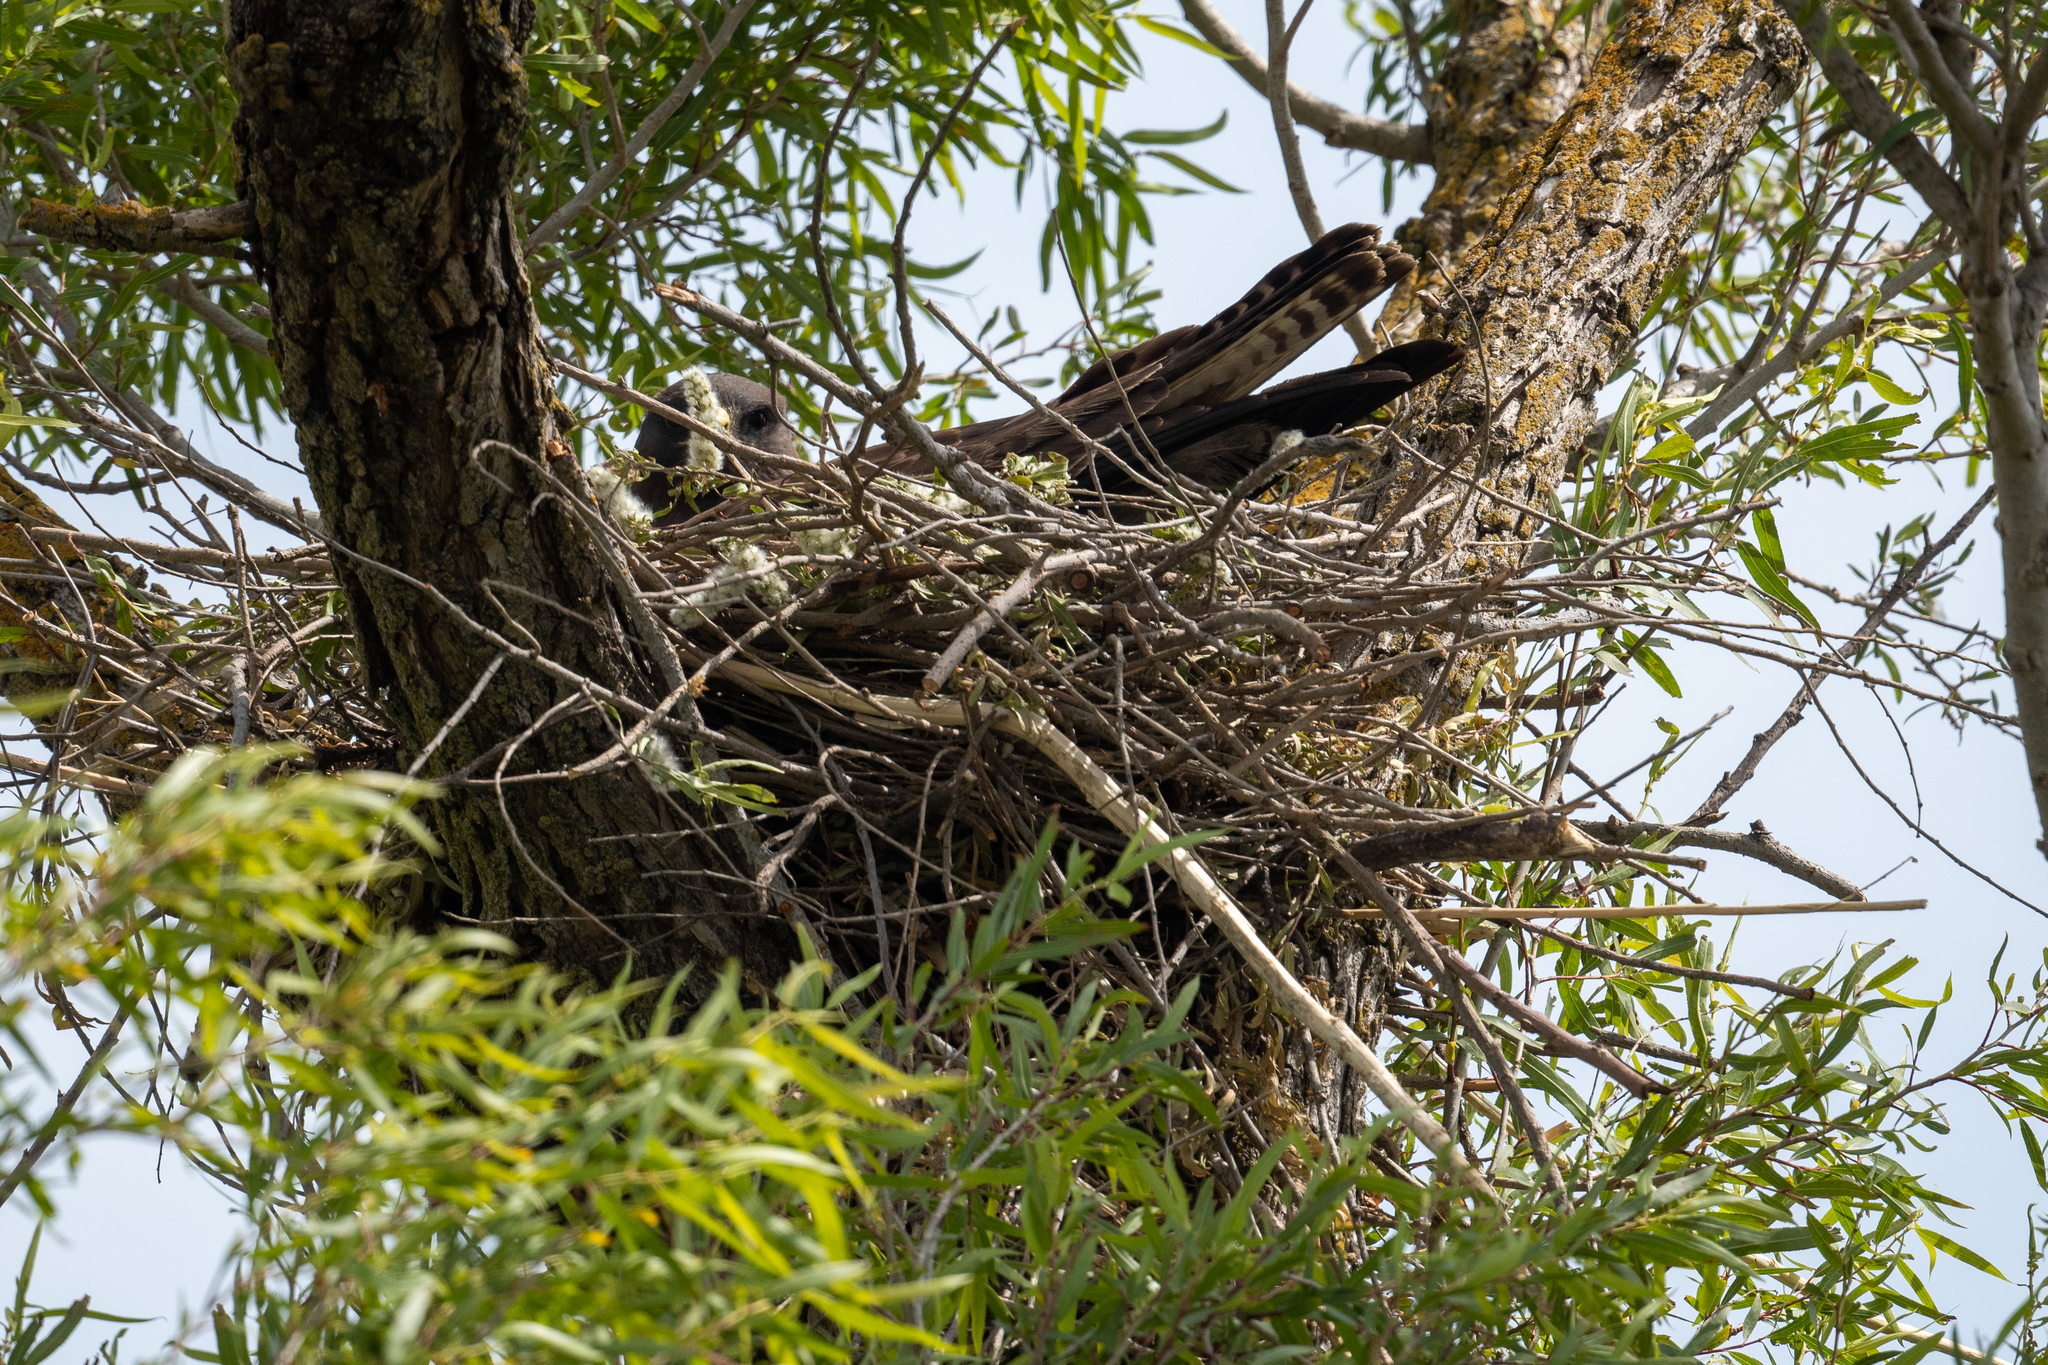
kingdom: Animalia
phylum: Chordata
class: Aves
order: Accipitriformes
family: Accipitridae
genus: Buteo
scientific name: Buteo swainsoni
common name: Swainson's hawk
